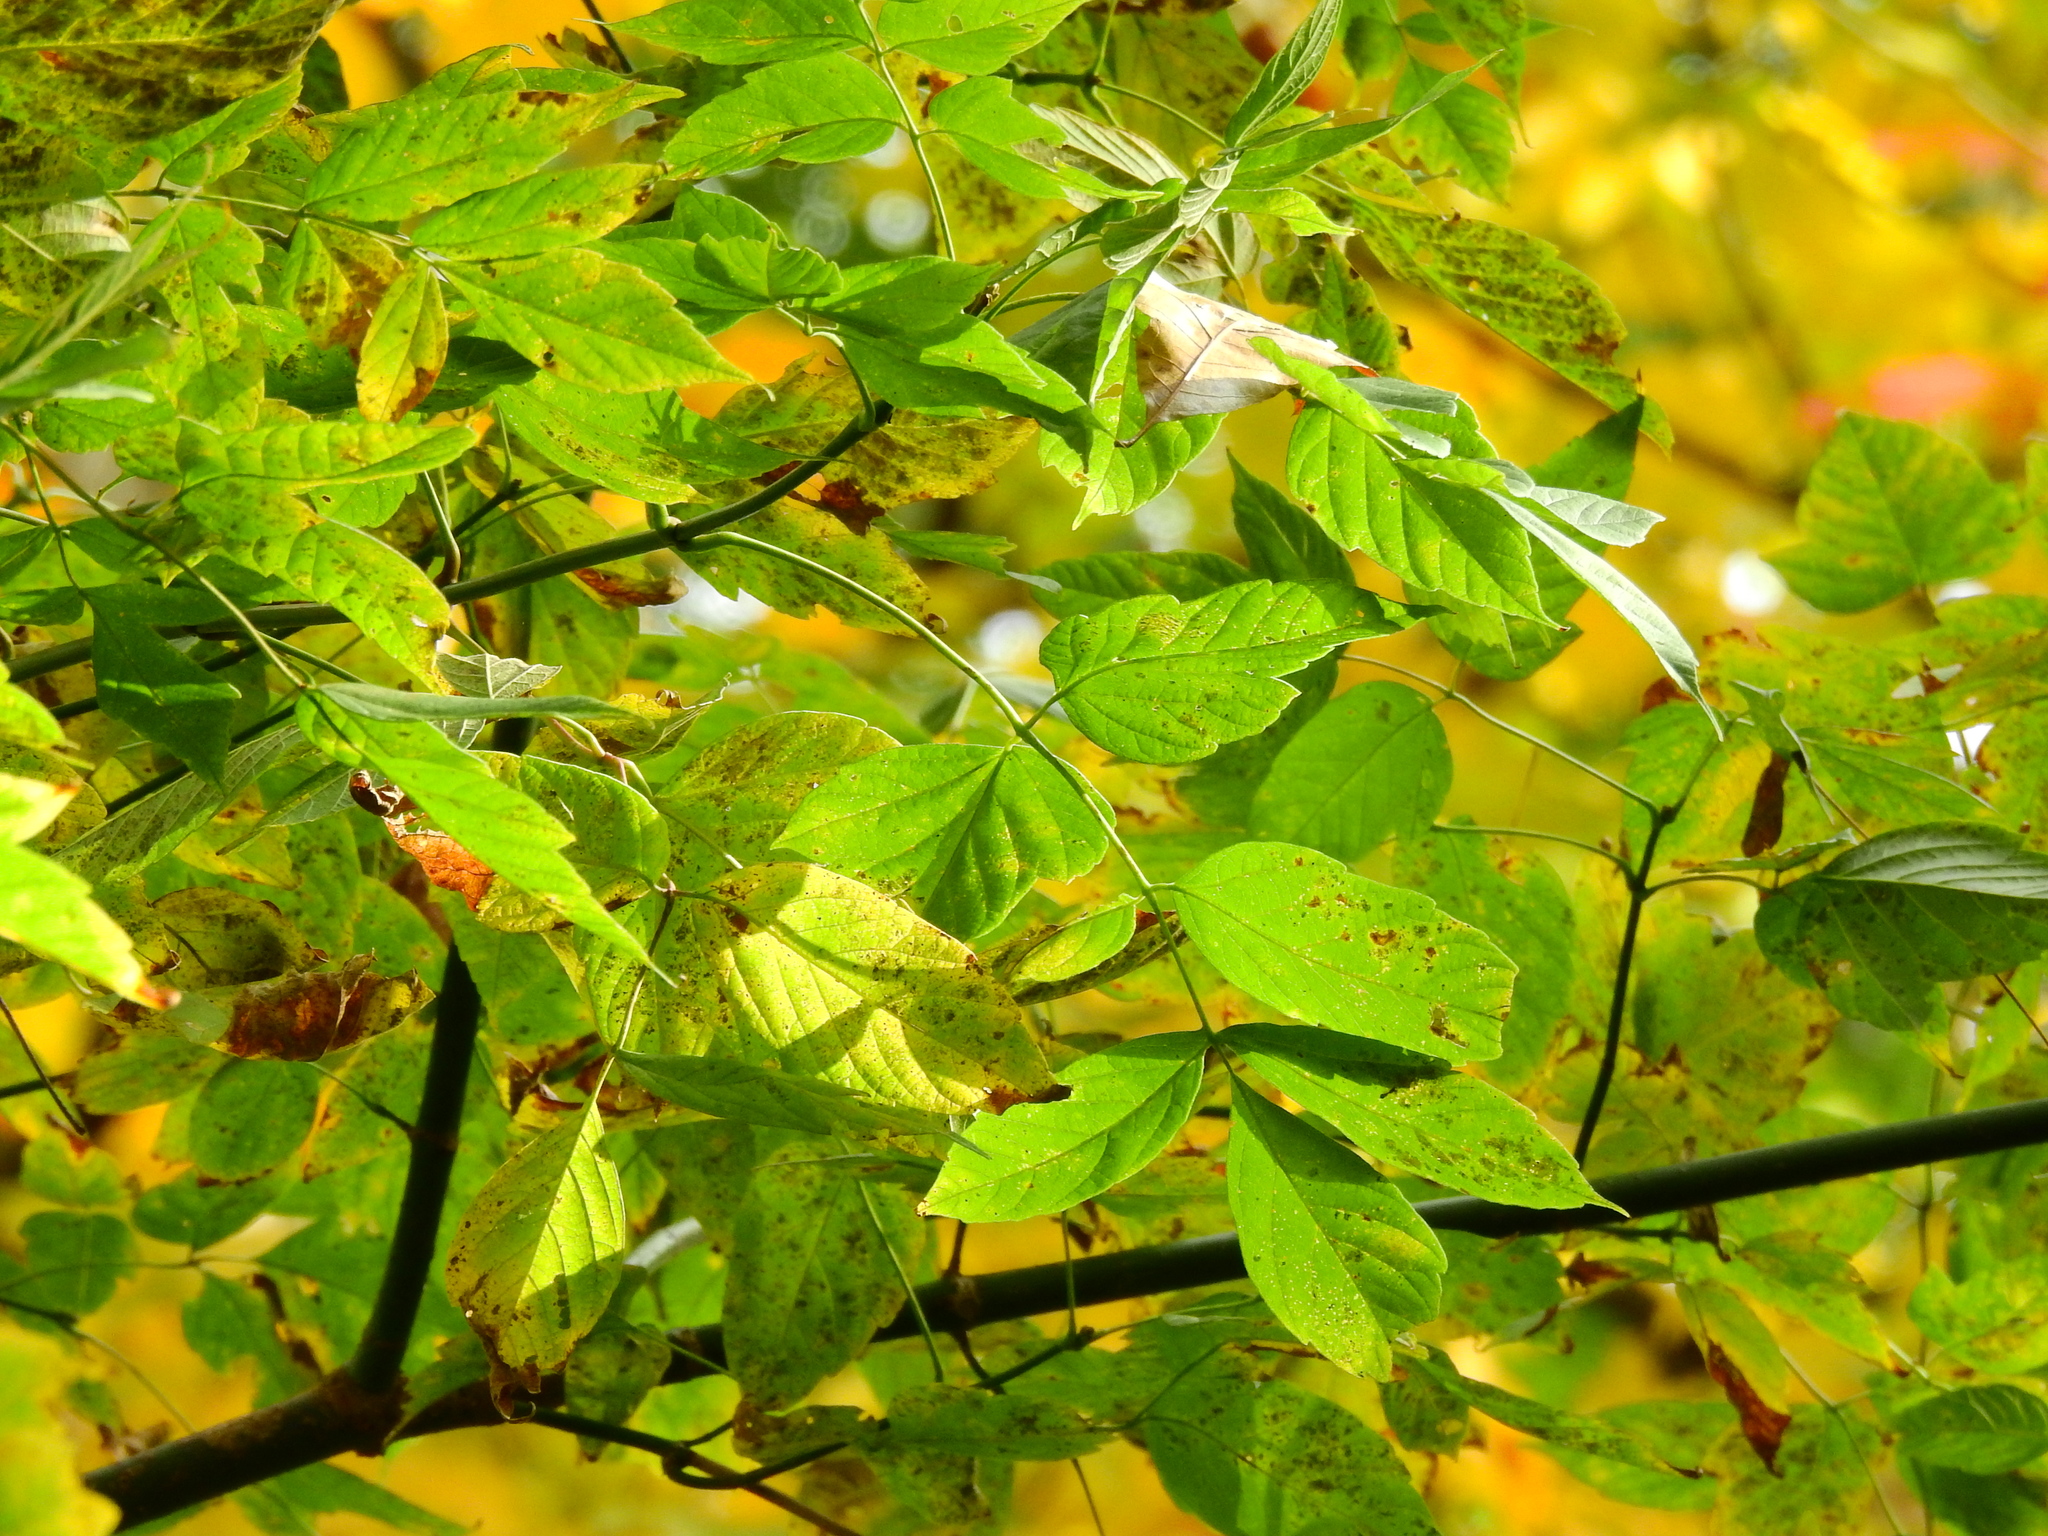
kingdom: Plantae
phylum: Tracheophyta
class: Magnoliopsida
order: Sapindales
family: Sapindaceae
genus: Acer
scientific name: Acer negundo
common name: Ashleaf maple
